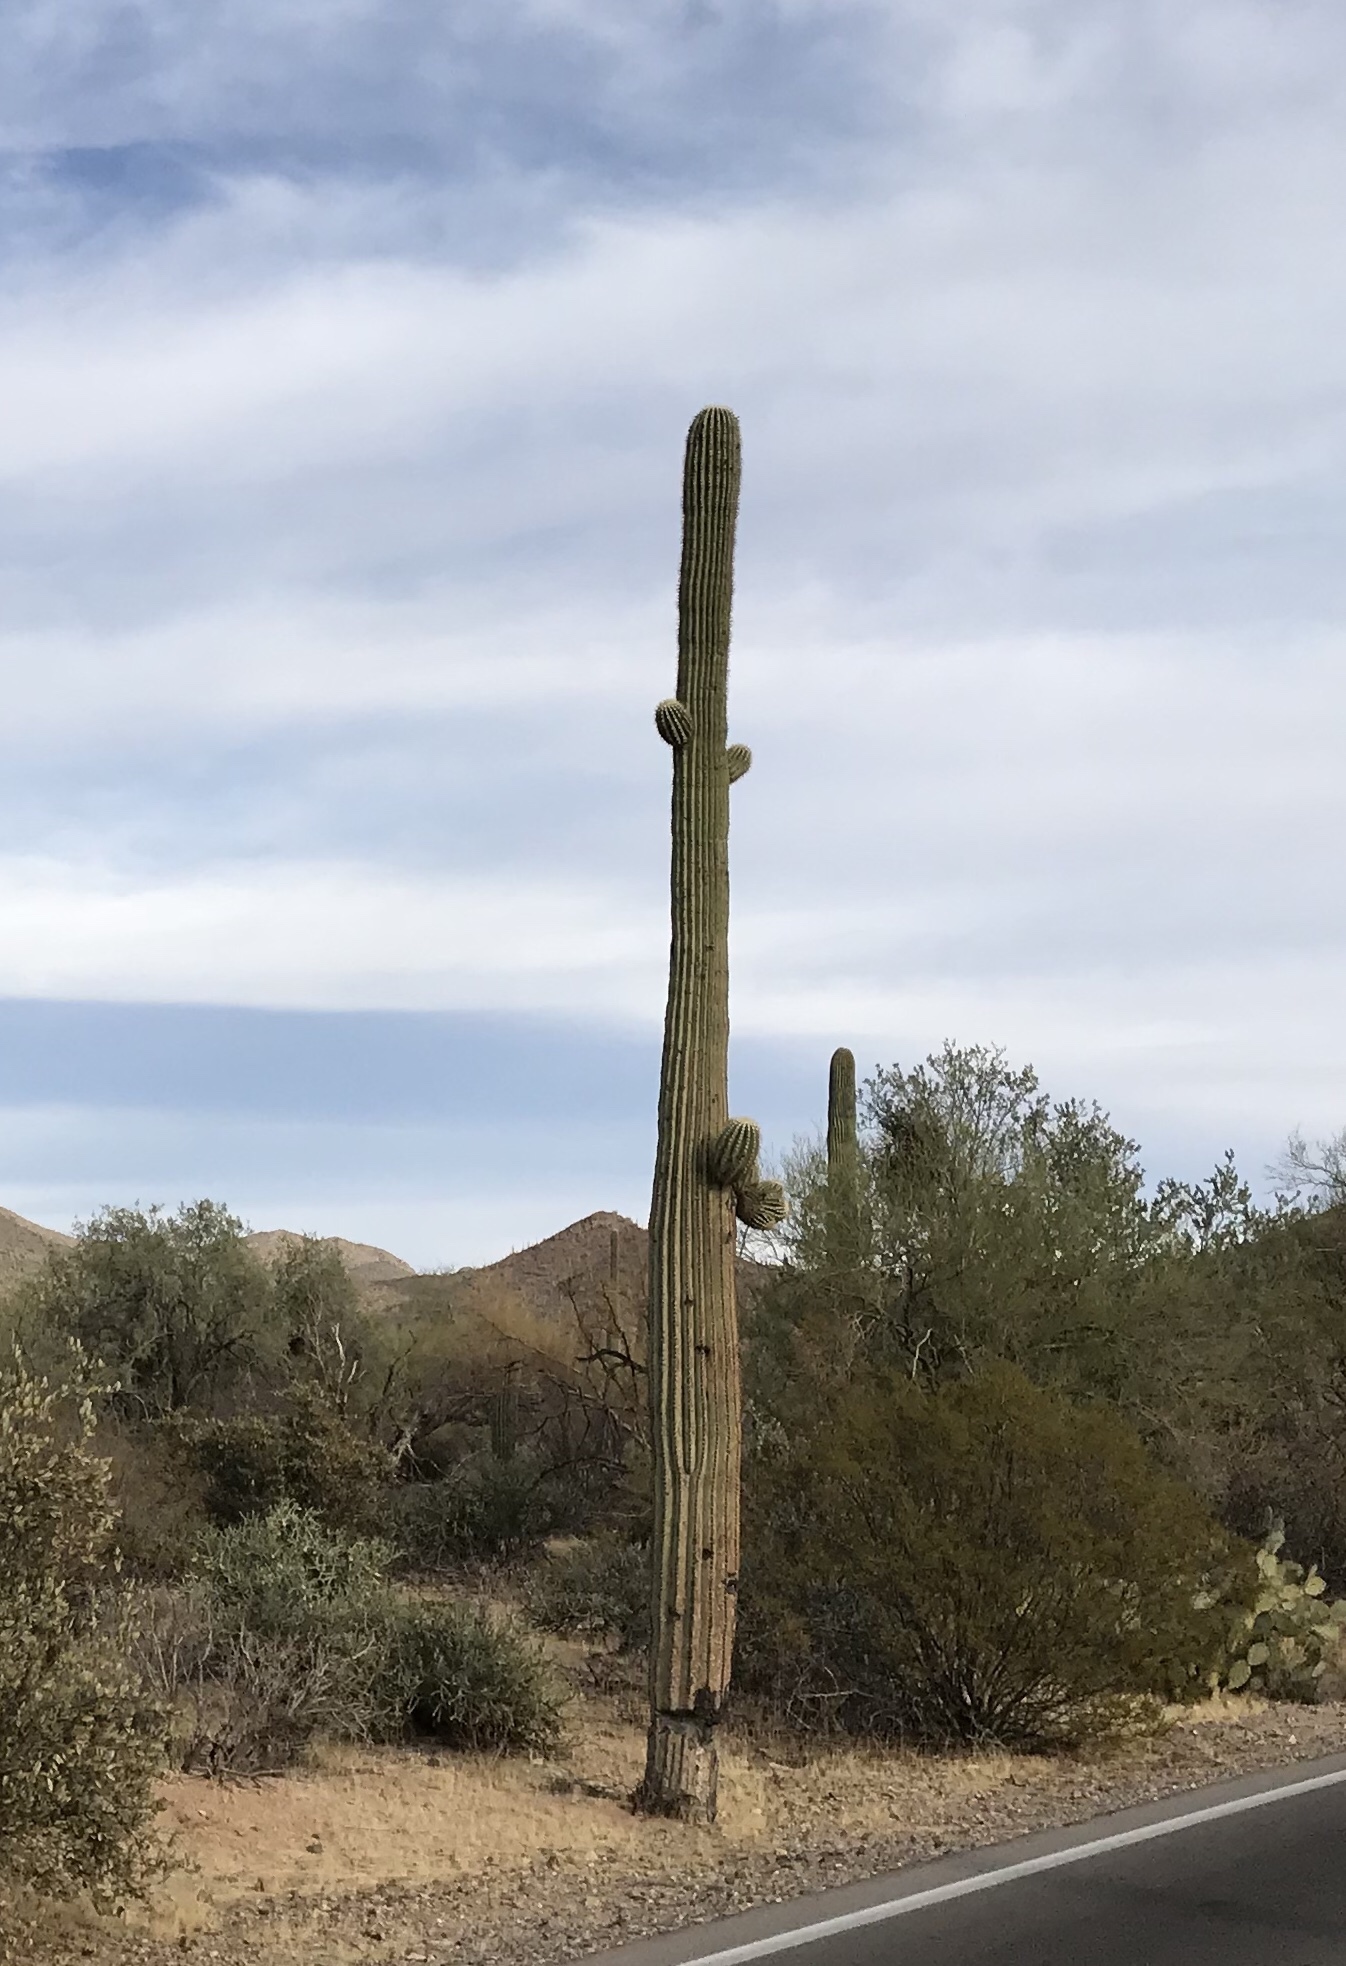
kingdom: Plantae
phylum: Tracheophyta
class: Magnoliopsida
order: Caryophyllales
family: Cactaceae
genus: Carnegiea
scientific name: Carnegiea gigantea
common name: Saguaro
